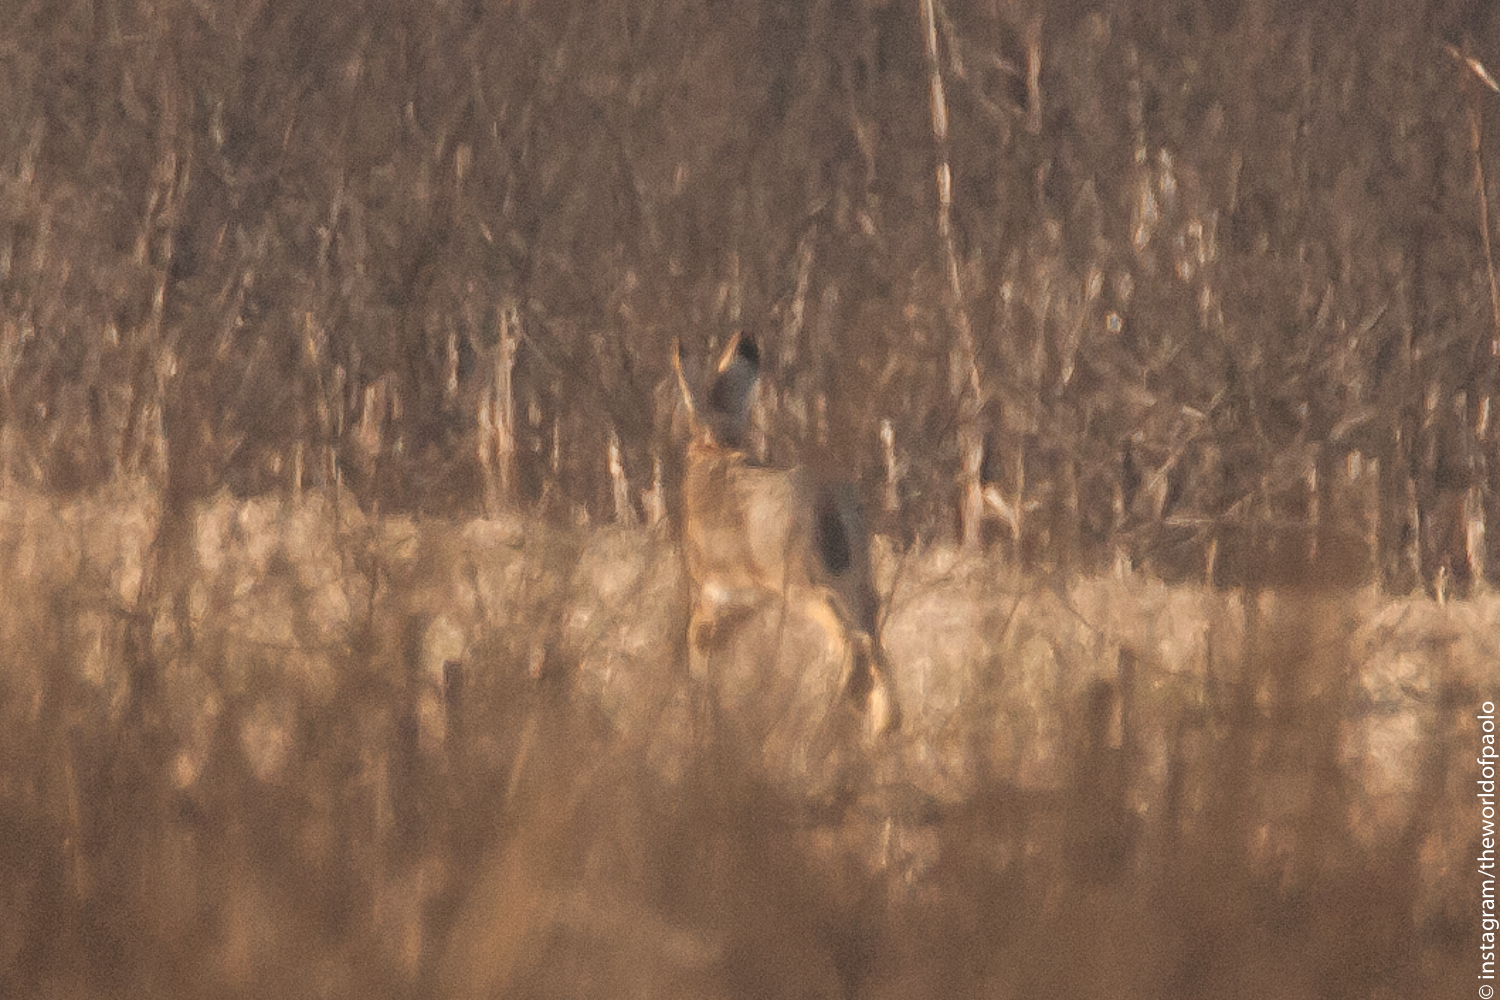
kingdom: Animalia
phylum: Chordata
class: Mammalia
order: Lagomorpha
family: Leporidae
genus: Lepus
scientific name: Lepus europaeus
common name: European hare
